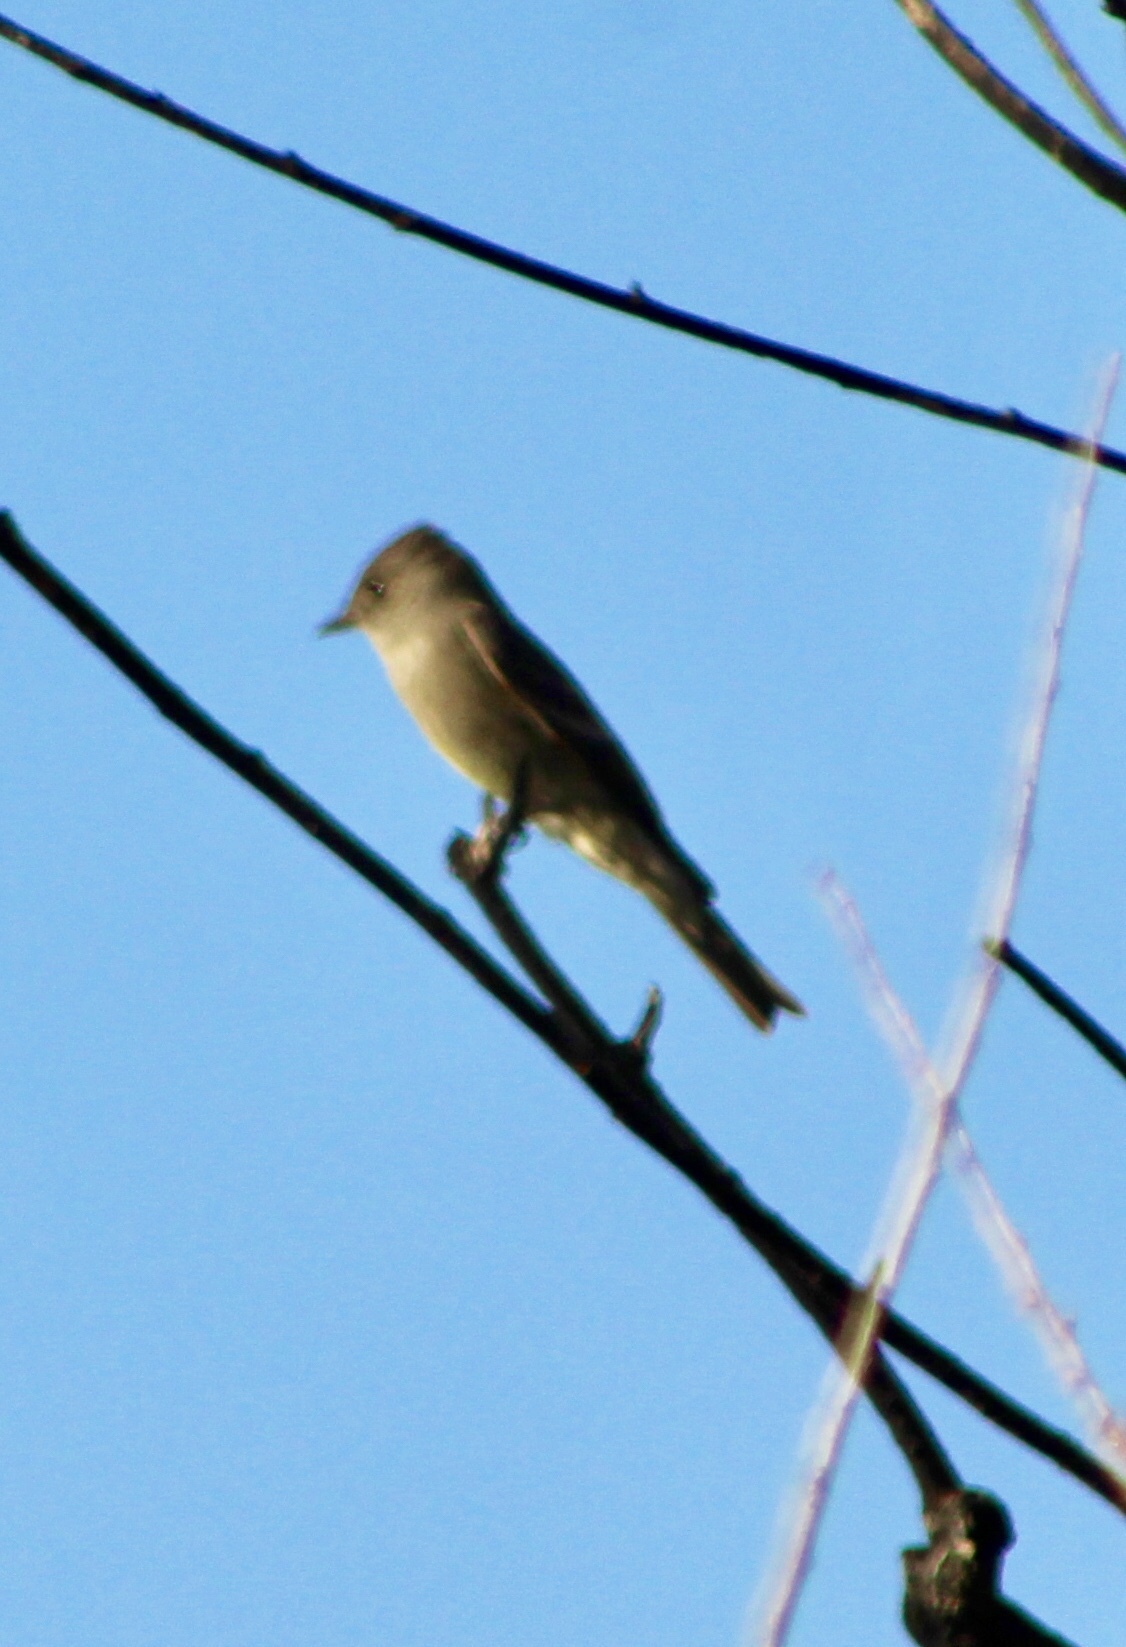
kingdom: Animalia
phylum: Chordata
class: Aves
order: Passeriformes
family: Tyrannidae
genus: Contopus
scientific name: Contopus sordidulus
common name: Western wood-pewee
